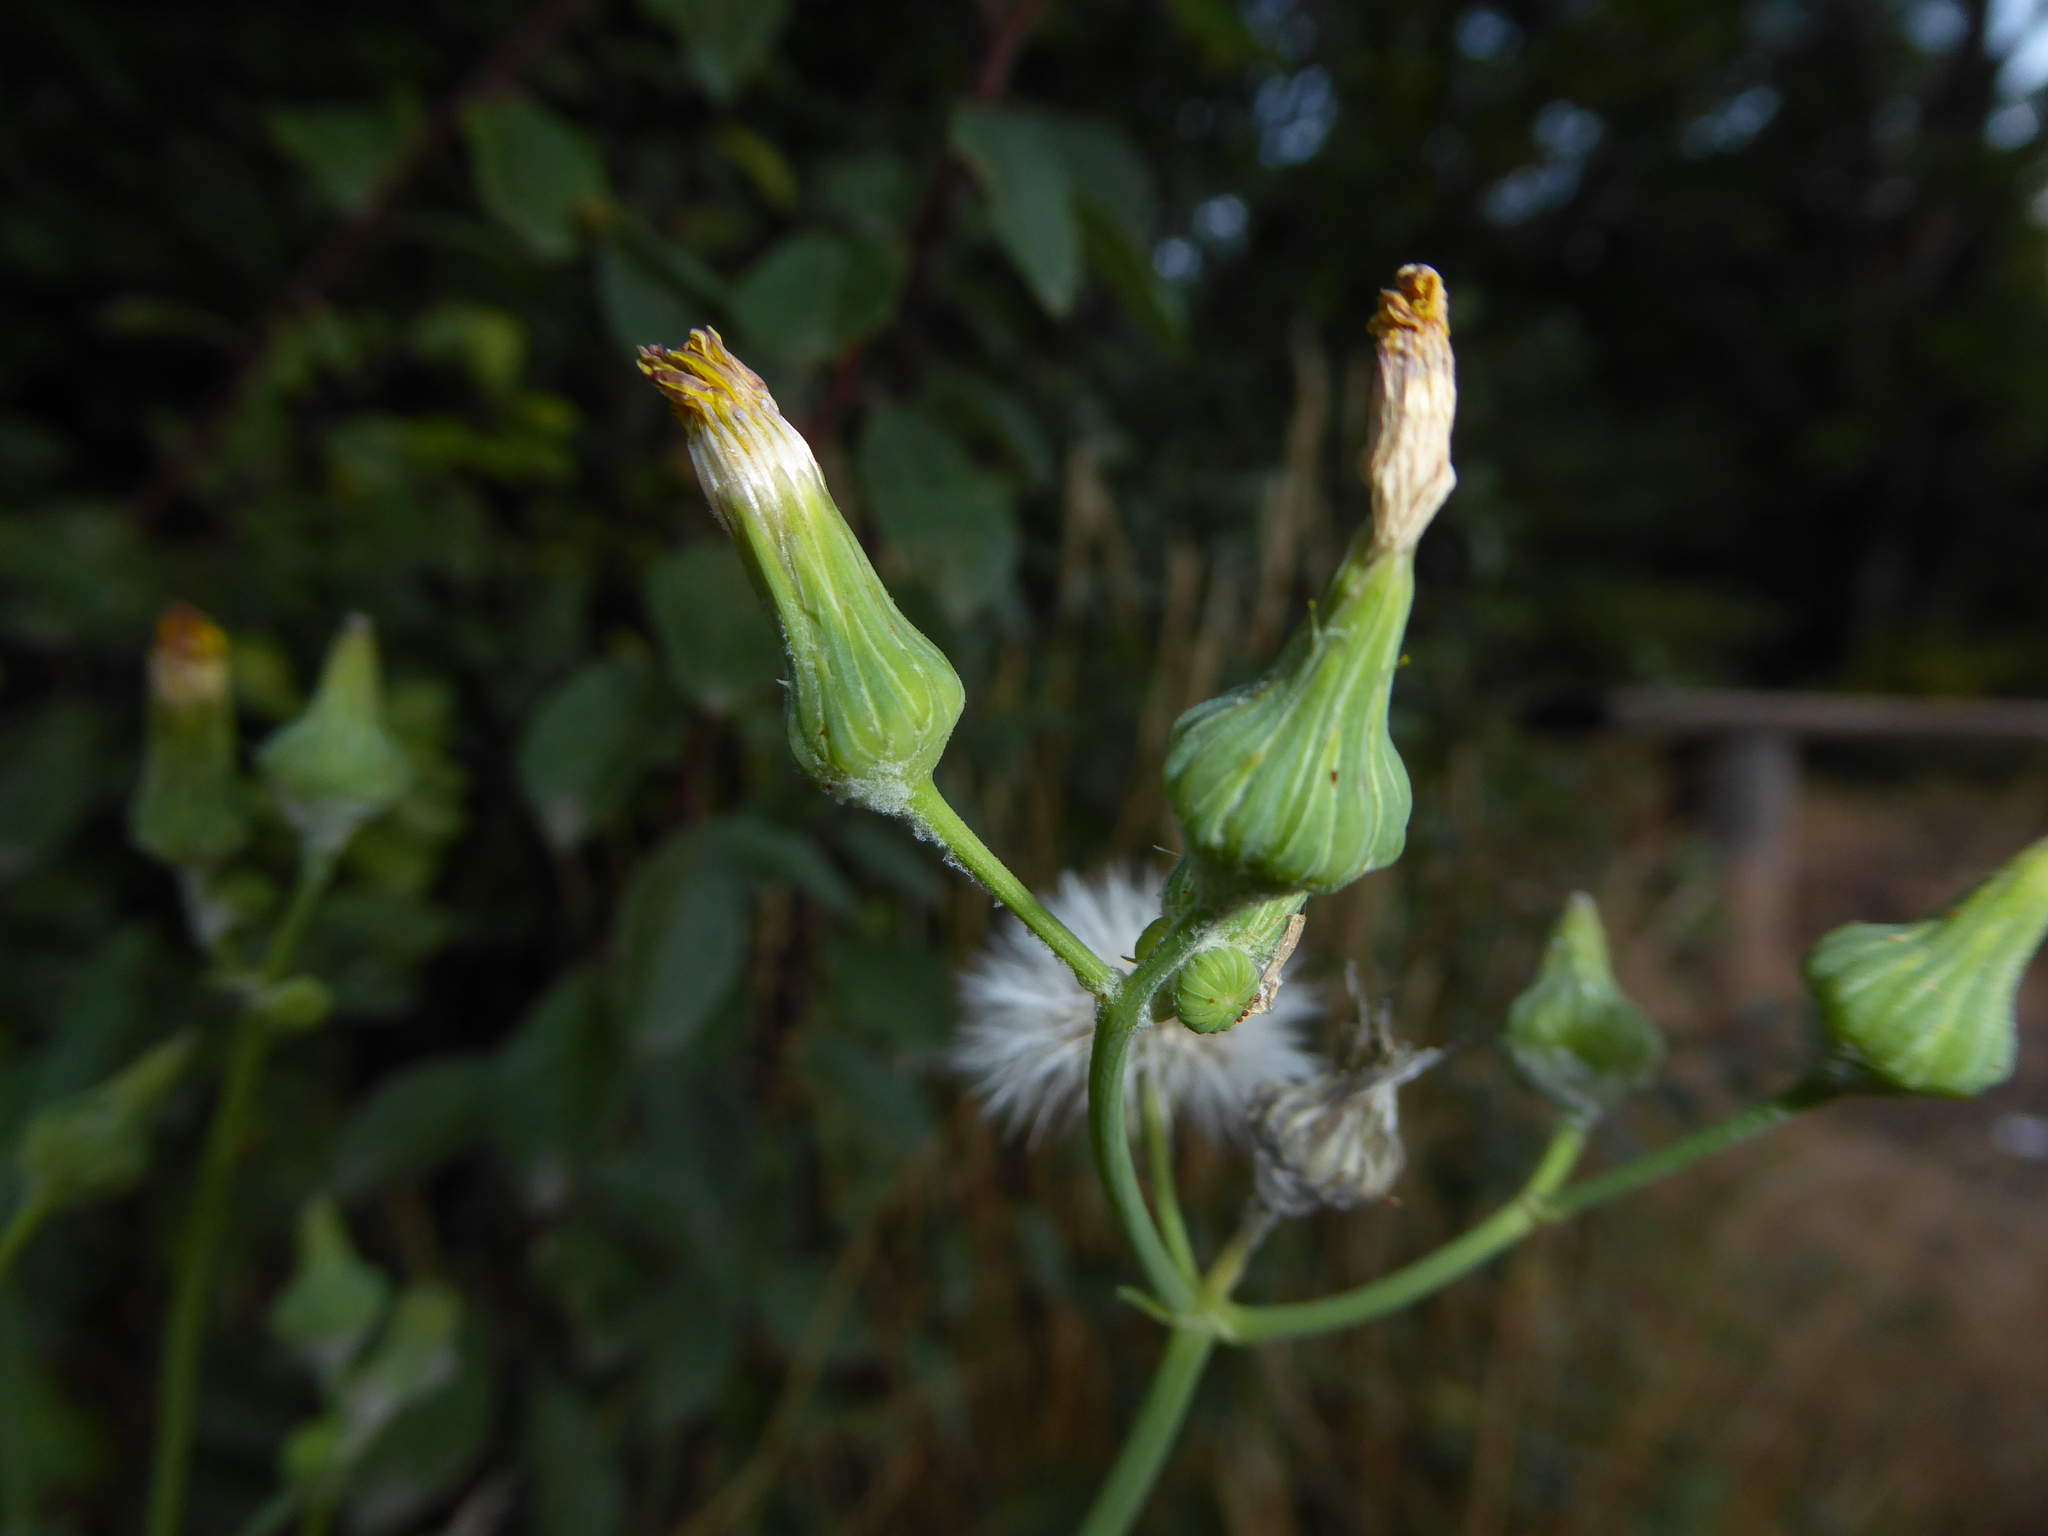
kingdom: Plantae
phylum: Tracheophyta
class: Magnoliopsida
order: Asterales
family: Asteraceae
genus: Sonchus
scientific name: Sonchus oleraceus
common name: Common sowthistle
